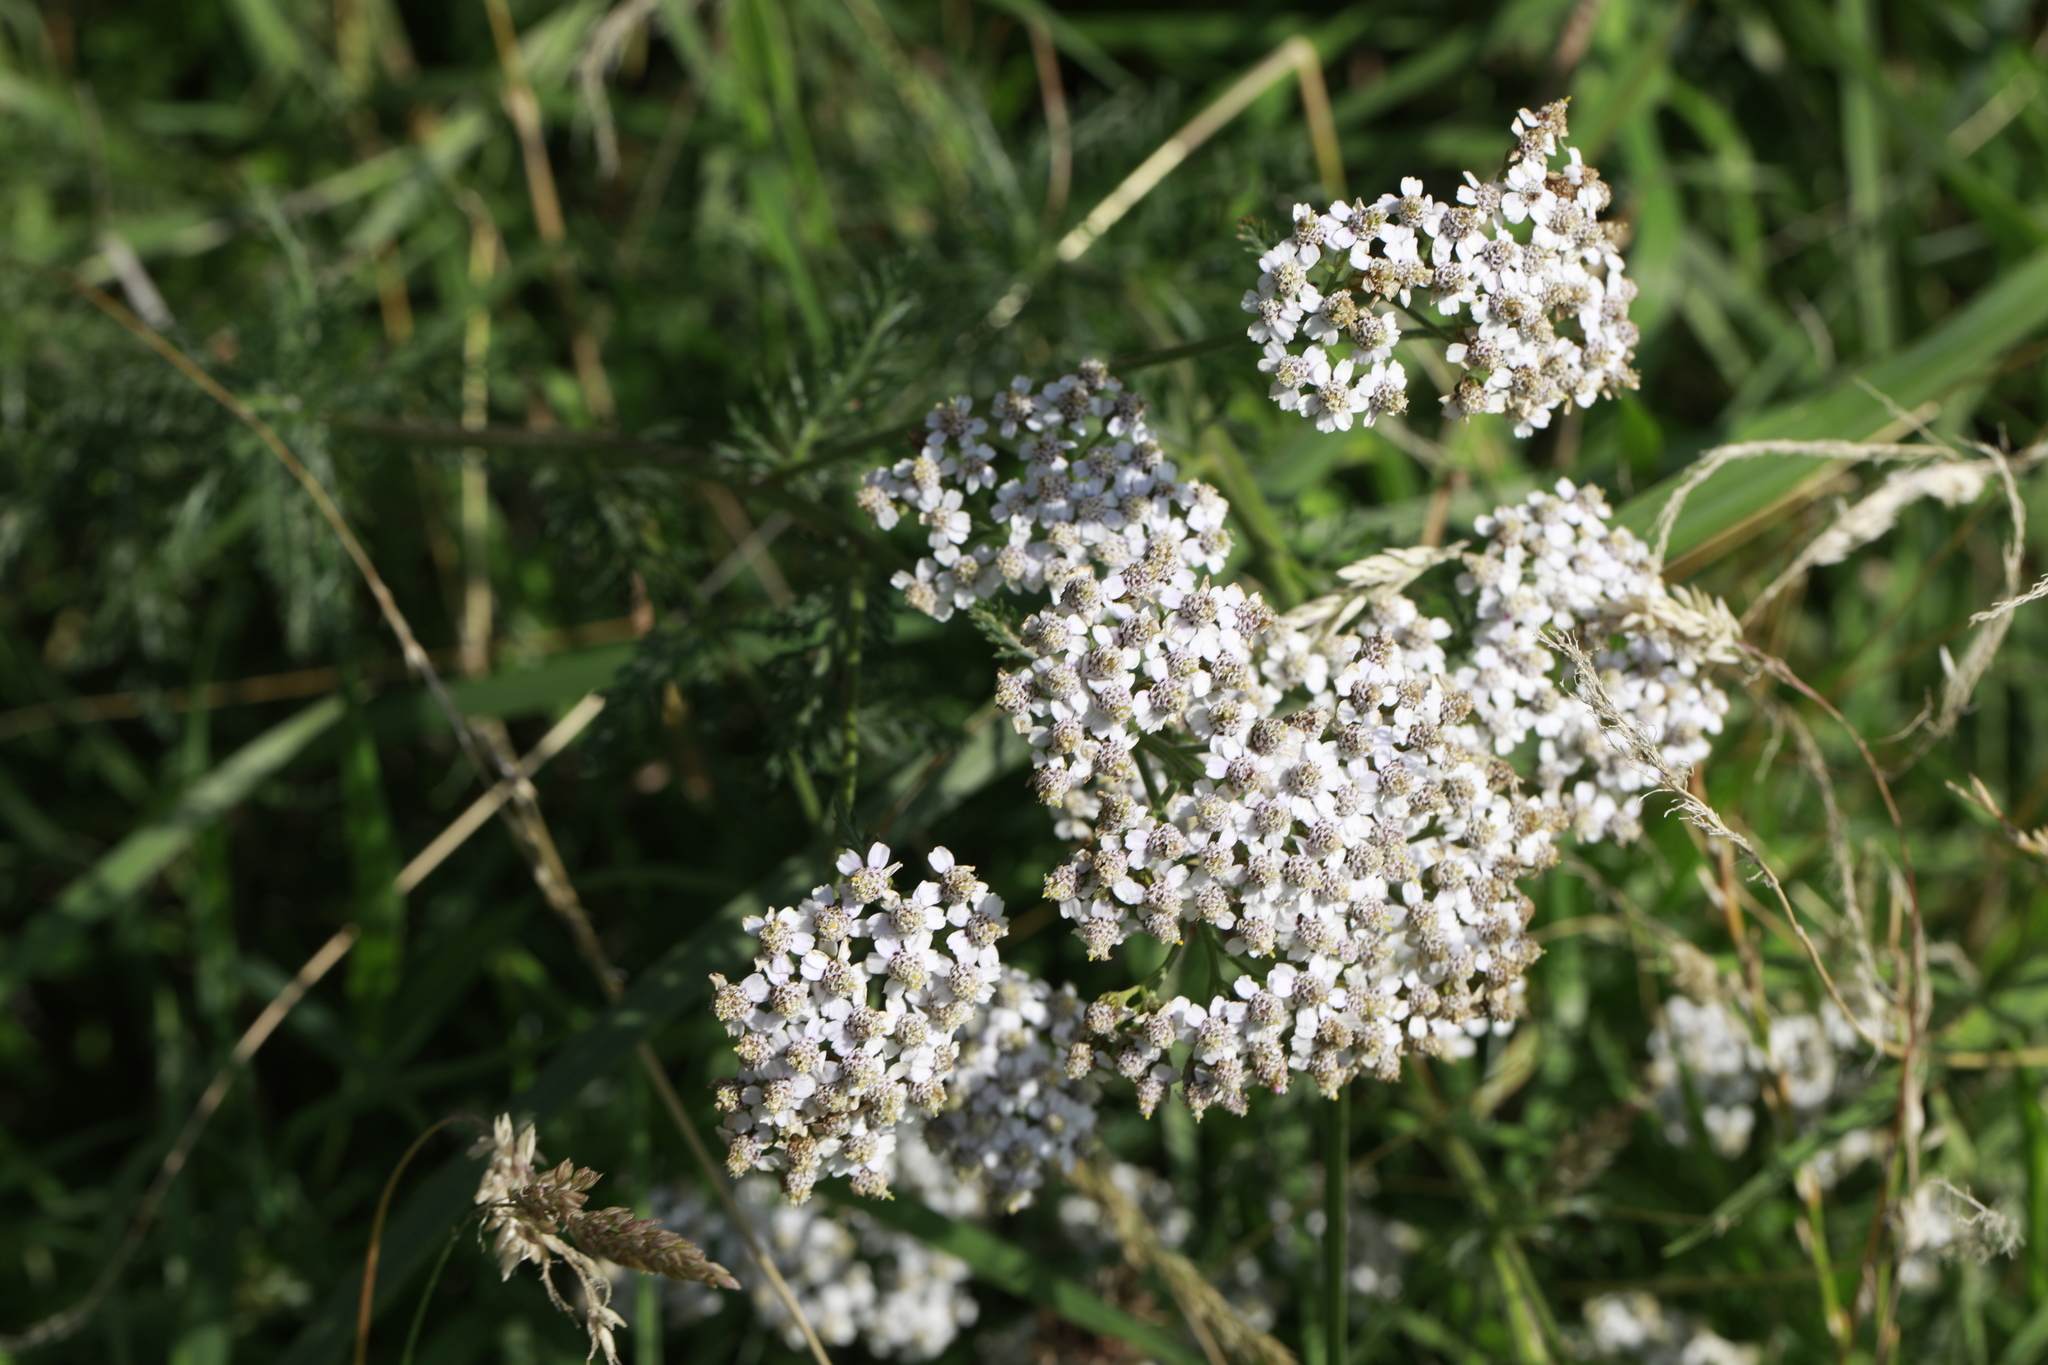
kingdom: Plantae
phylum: Tracheophyta
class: Magnoliopsida
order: Asterales
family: Asteraceae
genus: Achillea
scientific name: Achillea millefolium
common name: Yarrow
